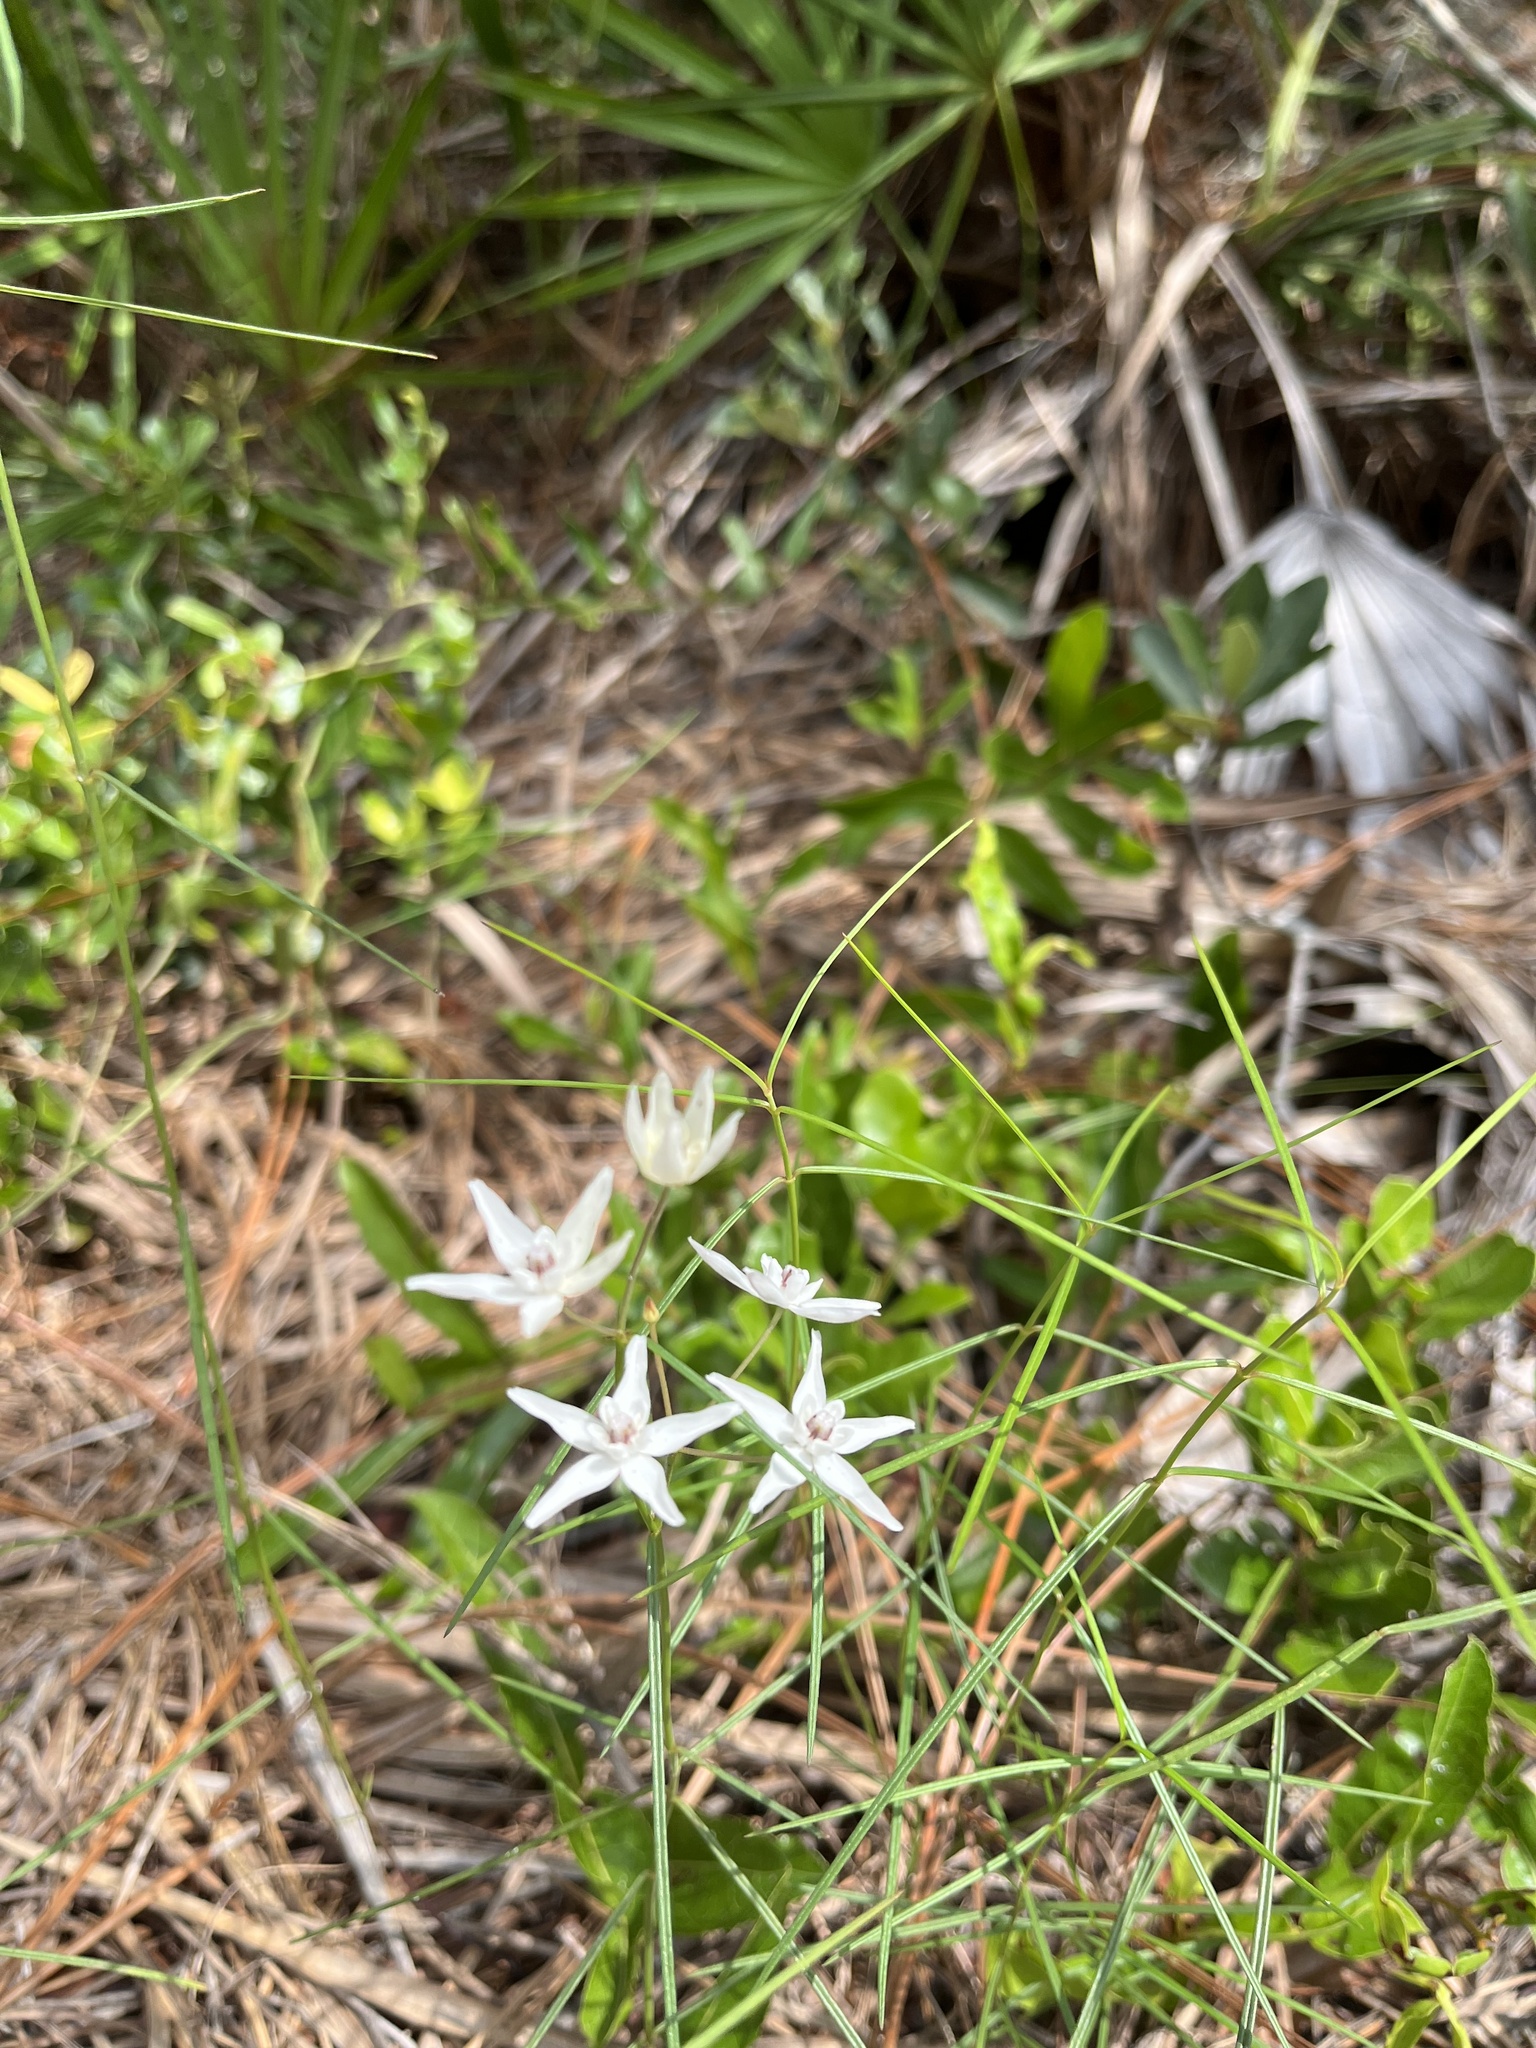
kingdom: Plantae
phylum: Tracheophyta
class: Magnoliopsida
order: Gentianales
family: Apocynaceae
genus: Asclepias
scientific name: Asclepias feayi
